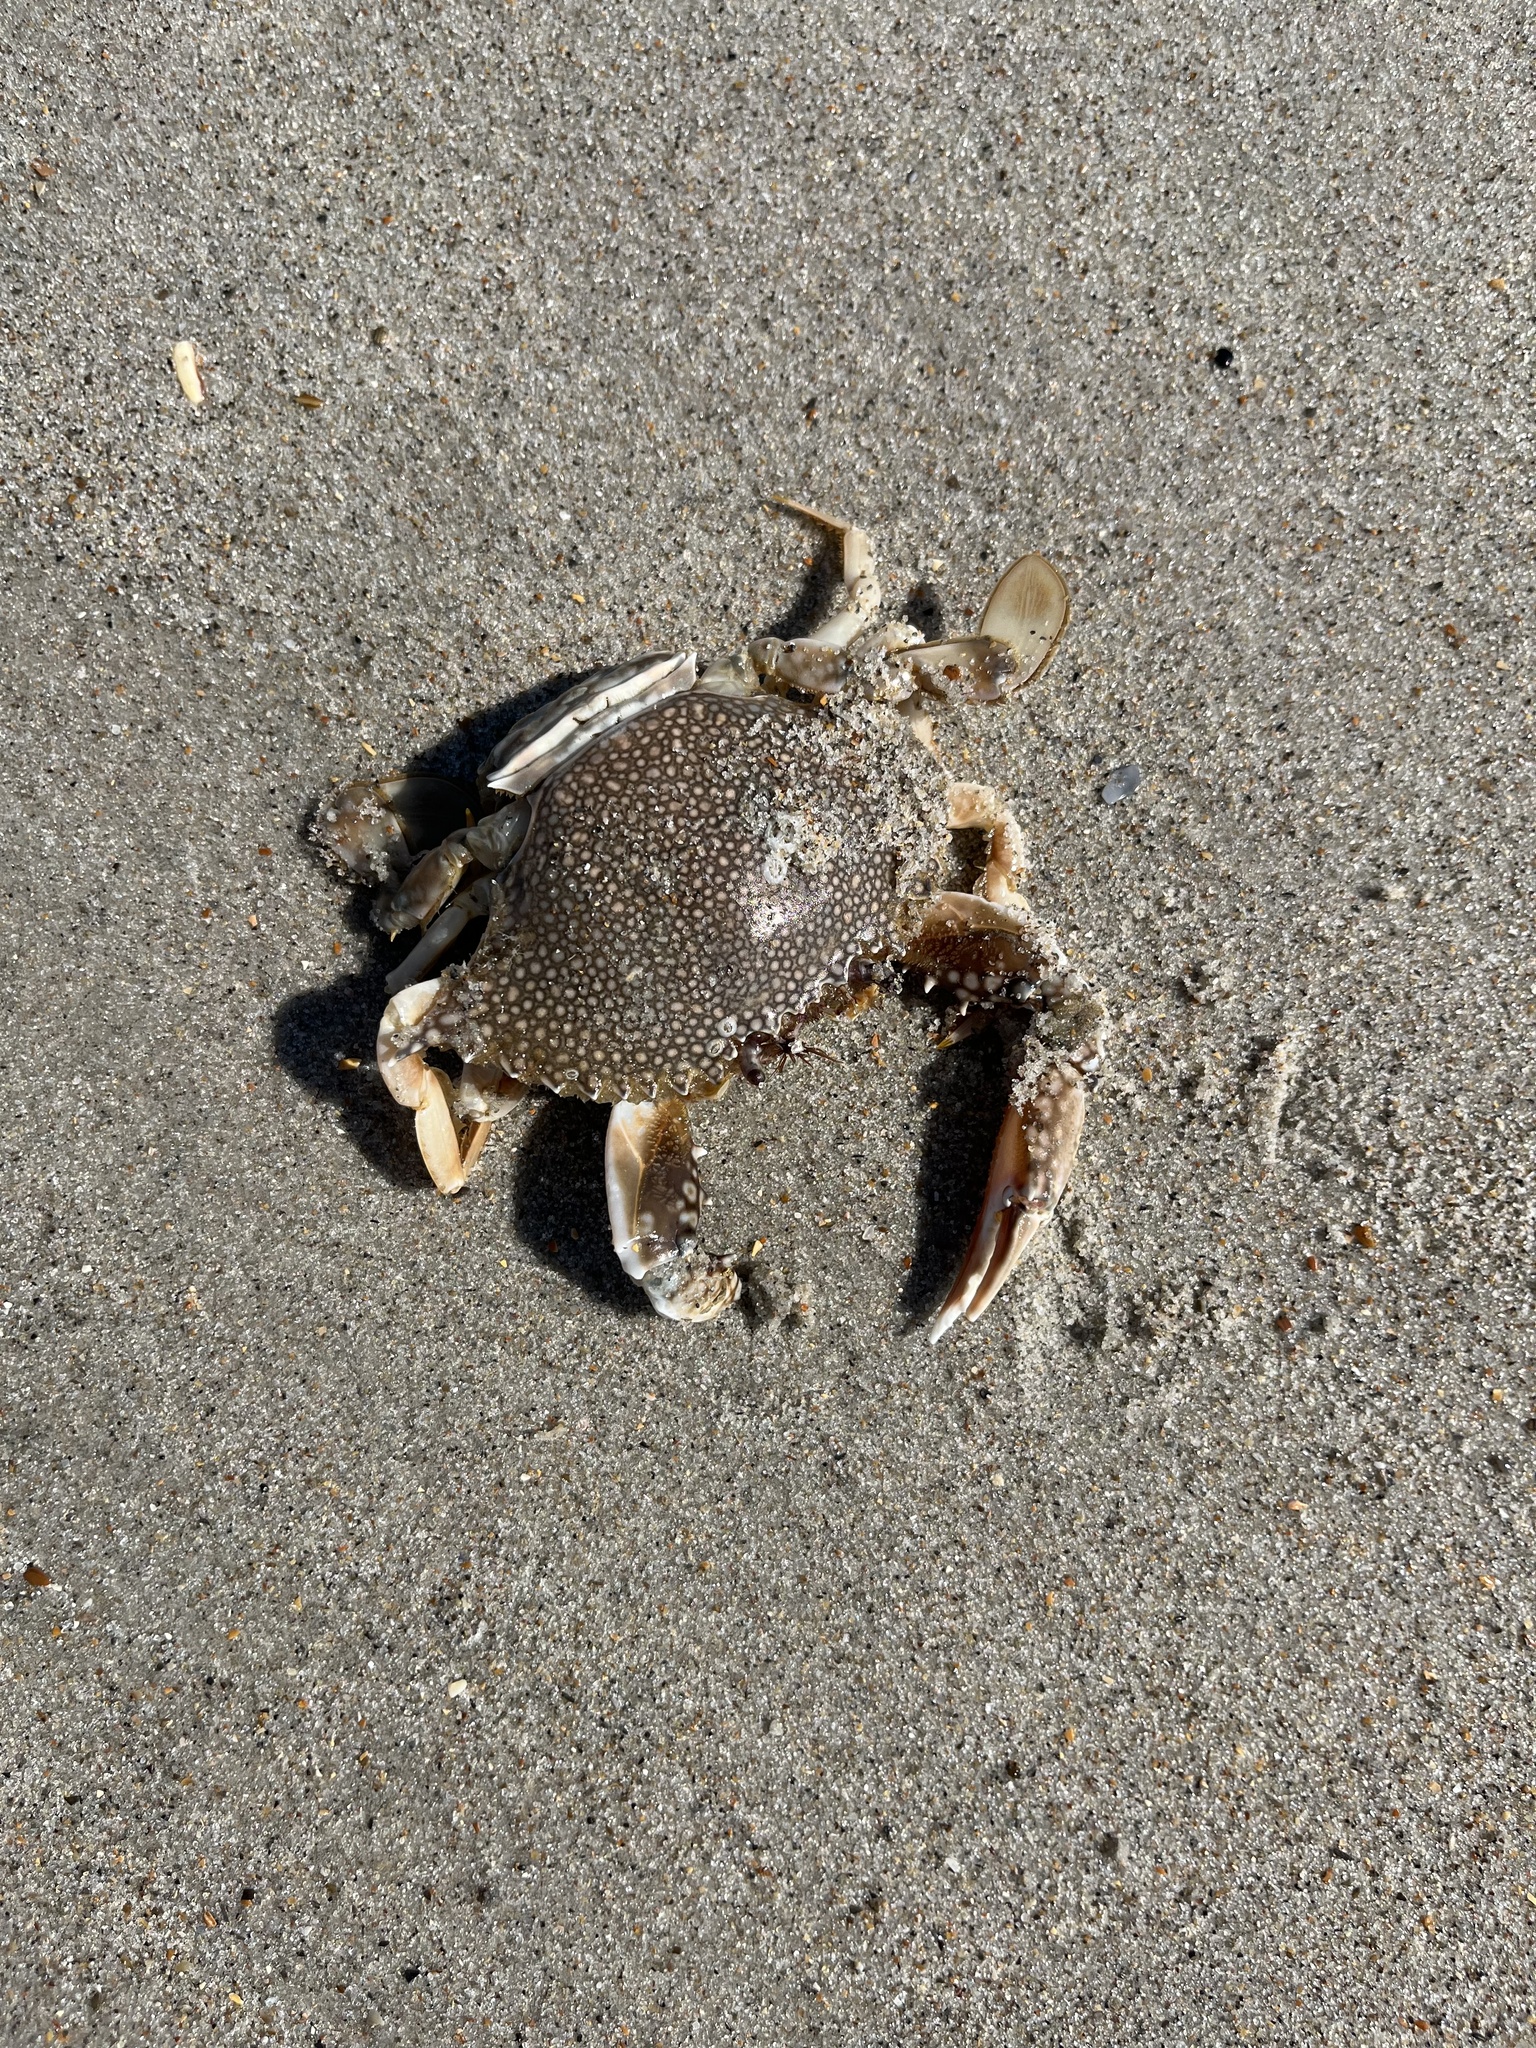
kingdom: Animalia
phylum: Arthropoda
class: Malacostraca
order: Decapoda
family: Portunidae
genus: Arenaeus
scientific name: Arenaeus cribrarius
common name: Speckled crab
